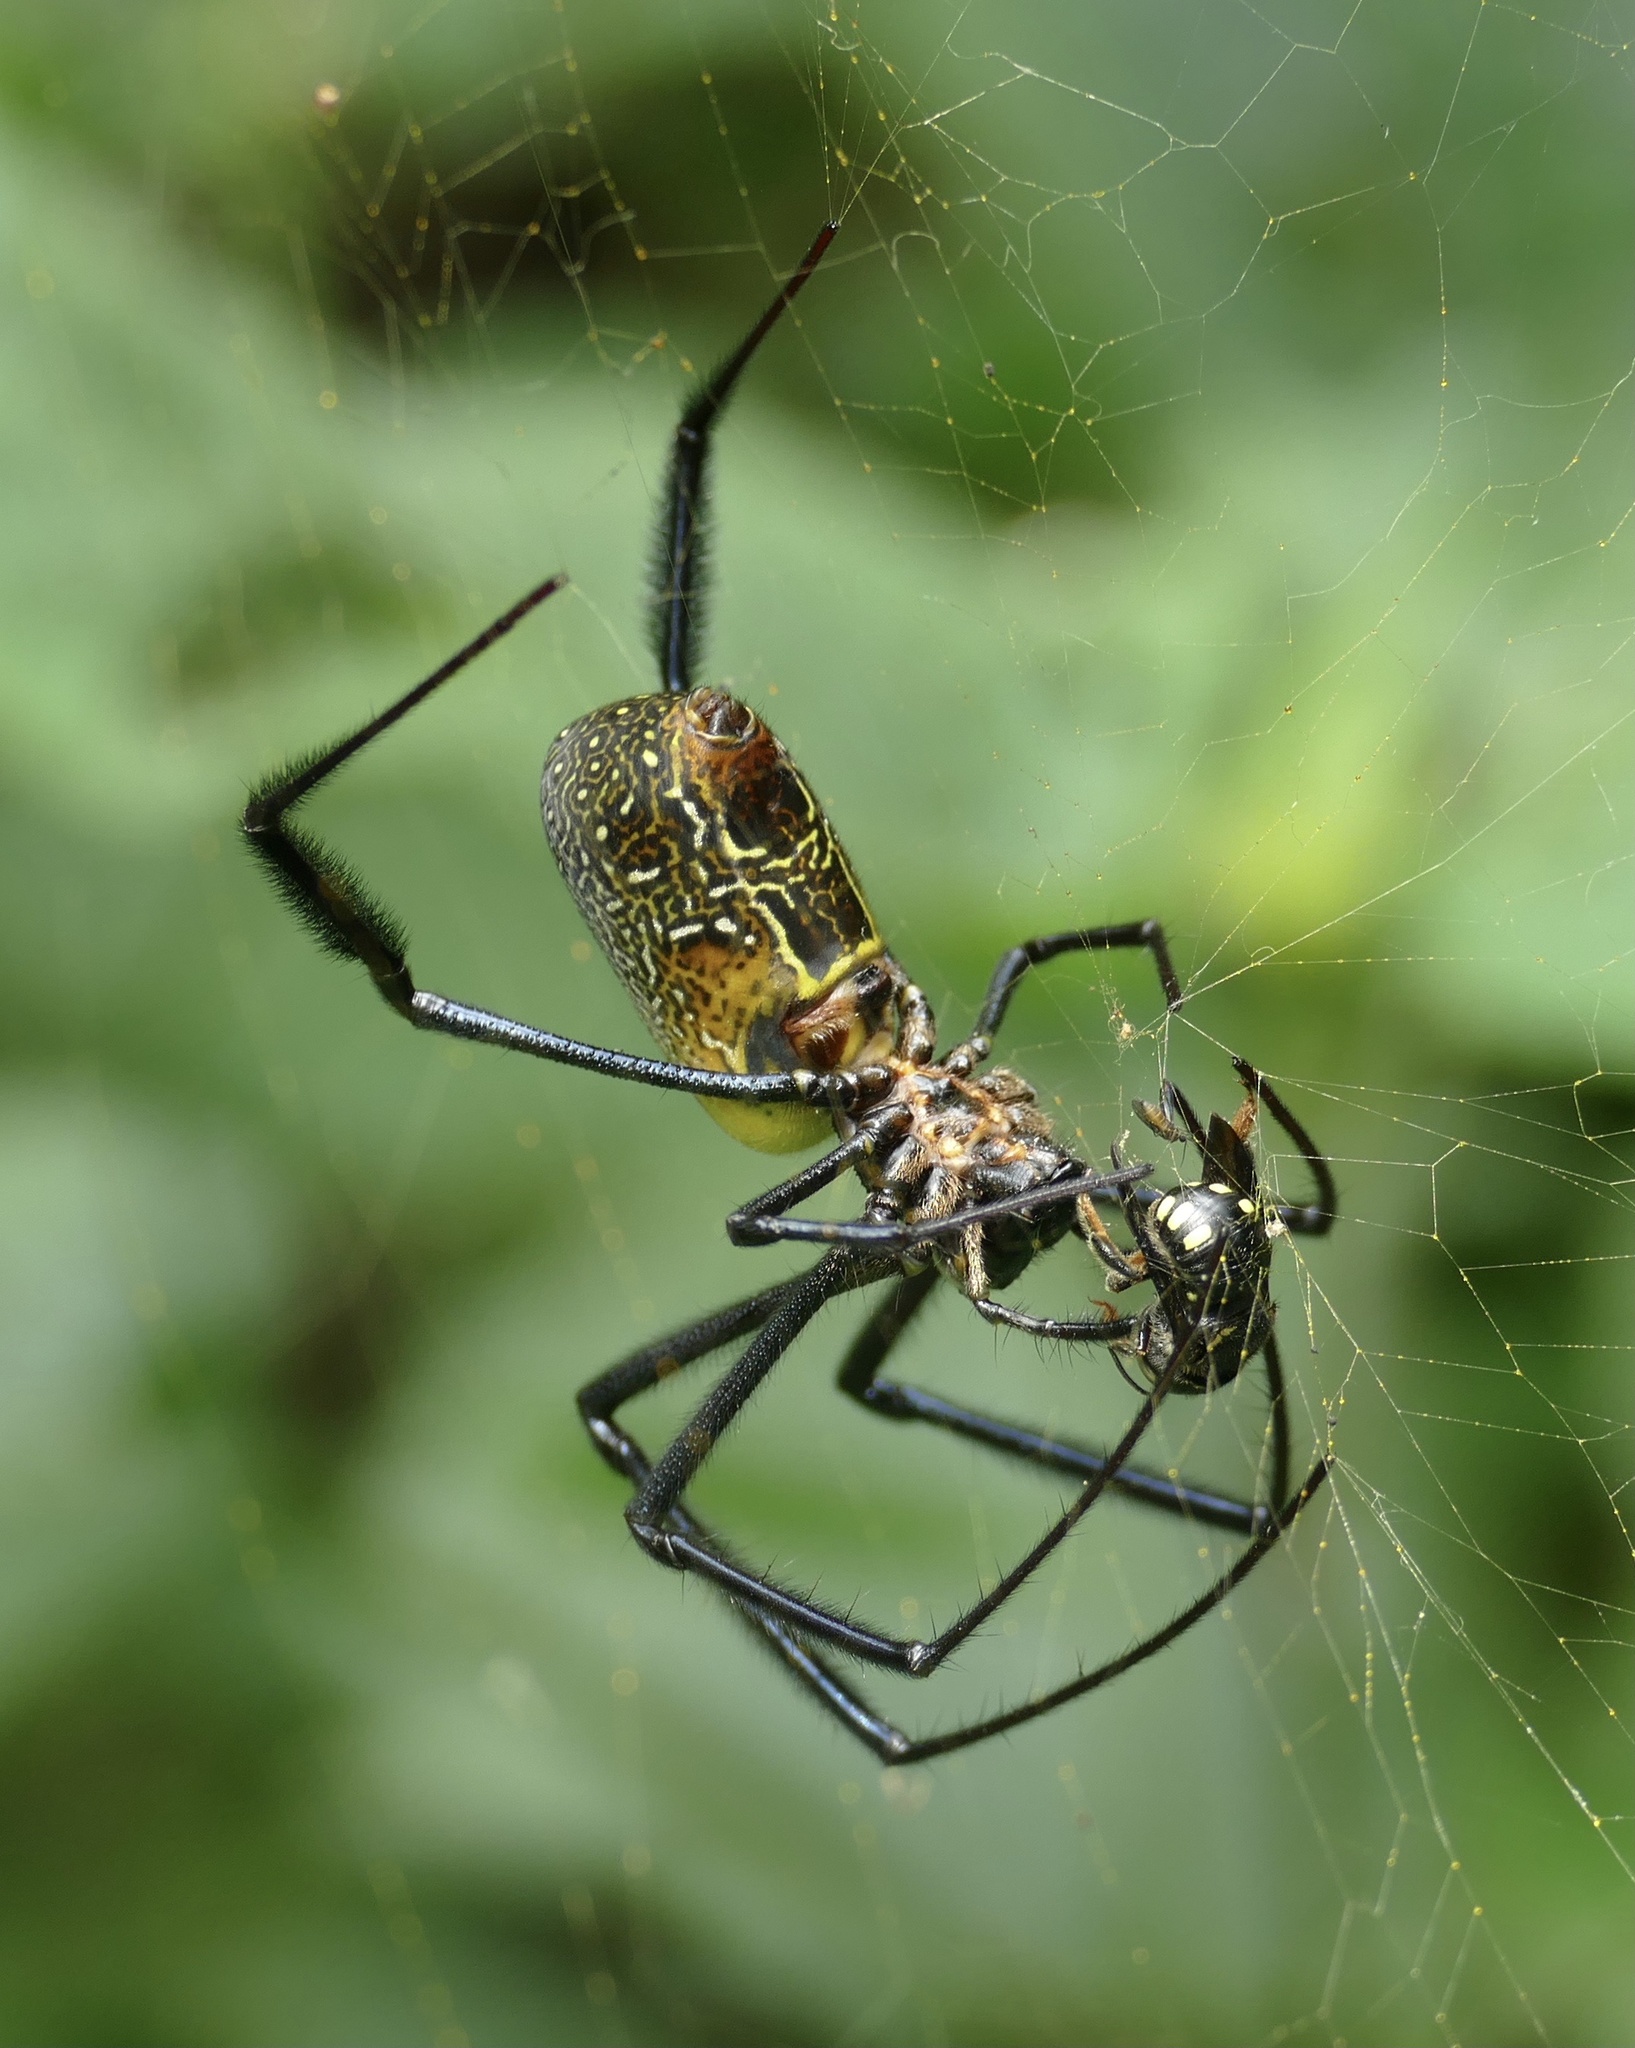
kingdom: Animalia
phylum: Arthropoda
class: Arachnida
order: Araneae
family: Araneidae
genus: Trichonephila
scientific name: Trichonephila fenestrata
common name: Hairy golden orb weaver
